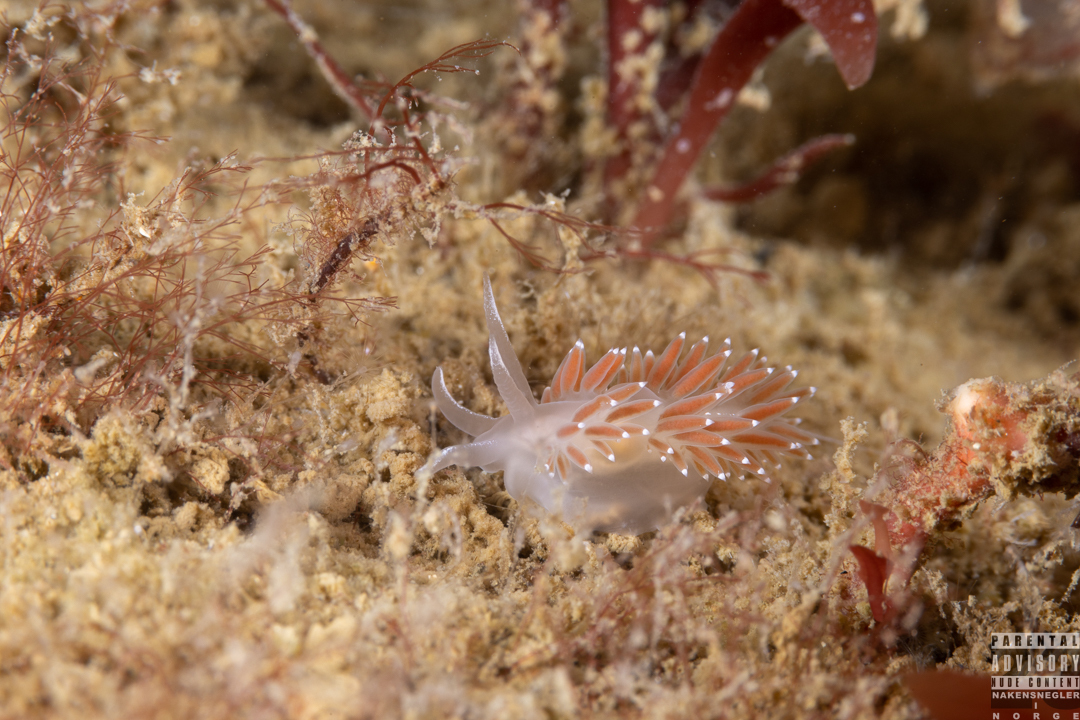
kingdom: Animalia
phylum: Mollusca
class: Gastropoda
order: Nudibranchia
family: Coryphellidae
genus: Coryphella
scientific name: Coryphella verrucosa
